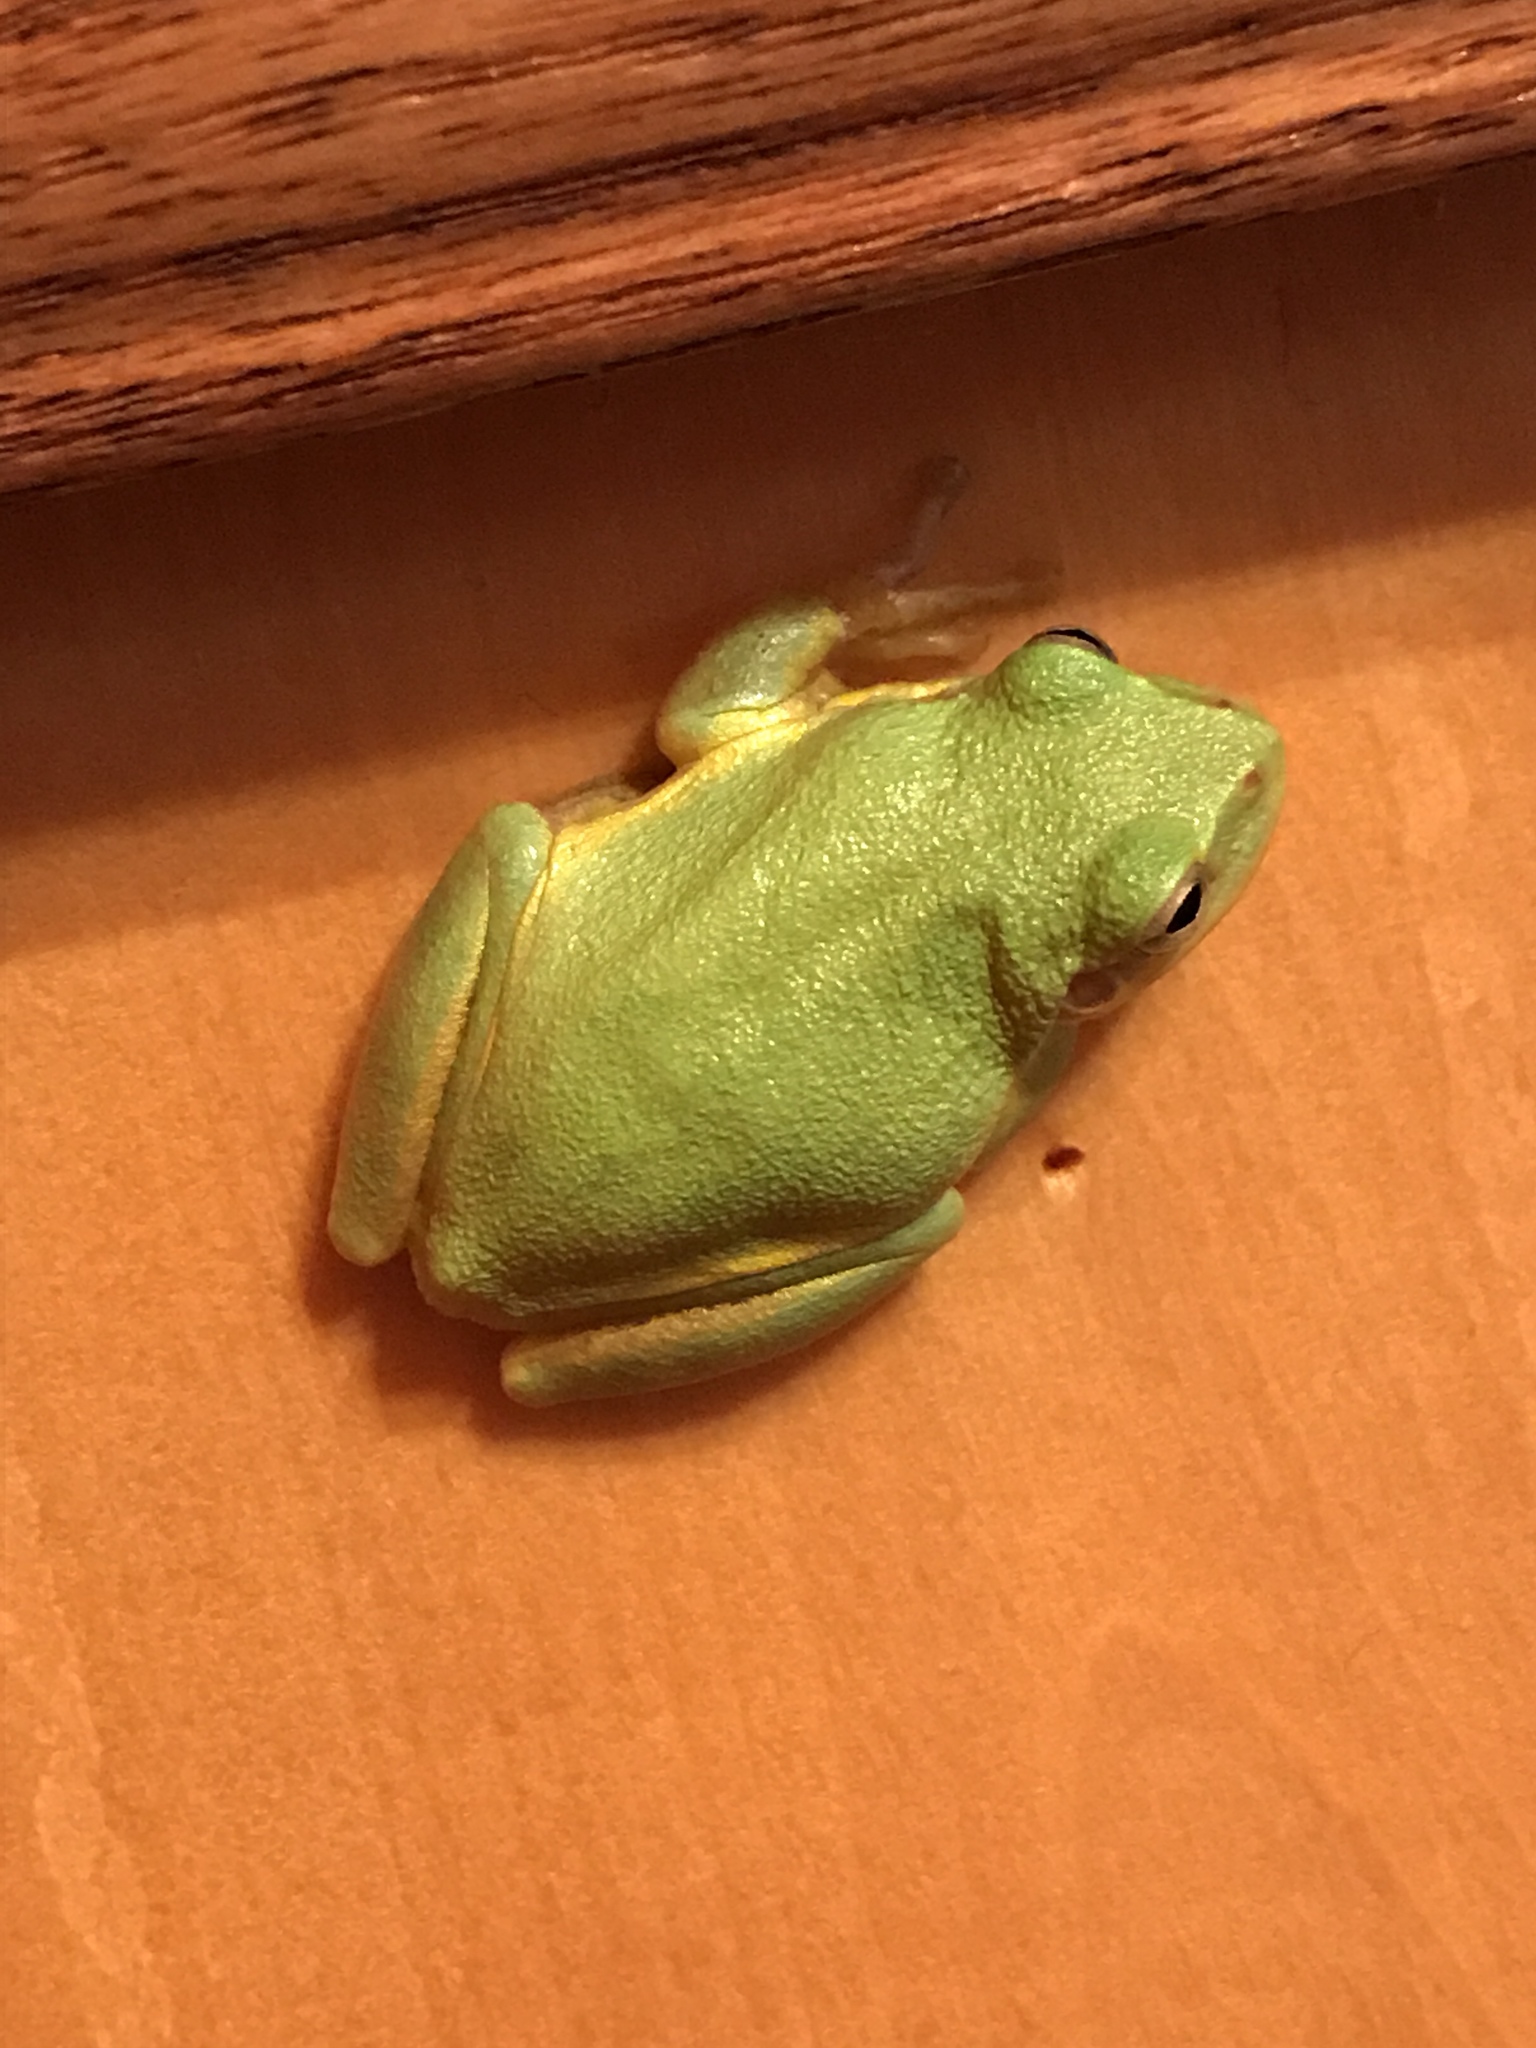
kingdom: Animalia
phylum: Chordata
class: Amphibia
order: Anura
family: Hylidae
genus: Dryophytes
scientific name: Dryophytes cinereus
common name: Green treefrog
